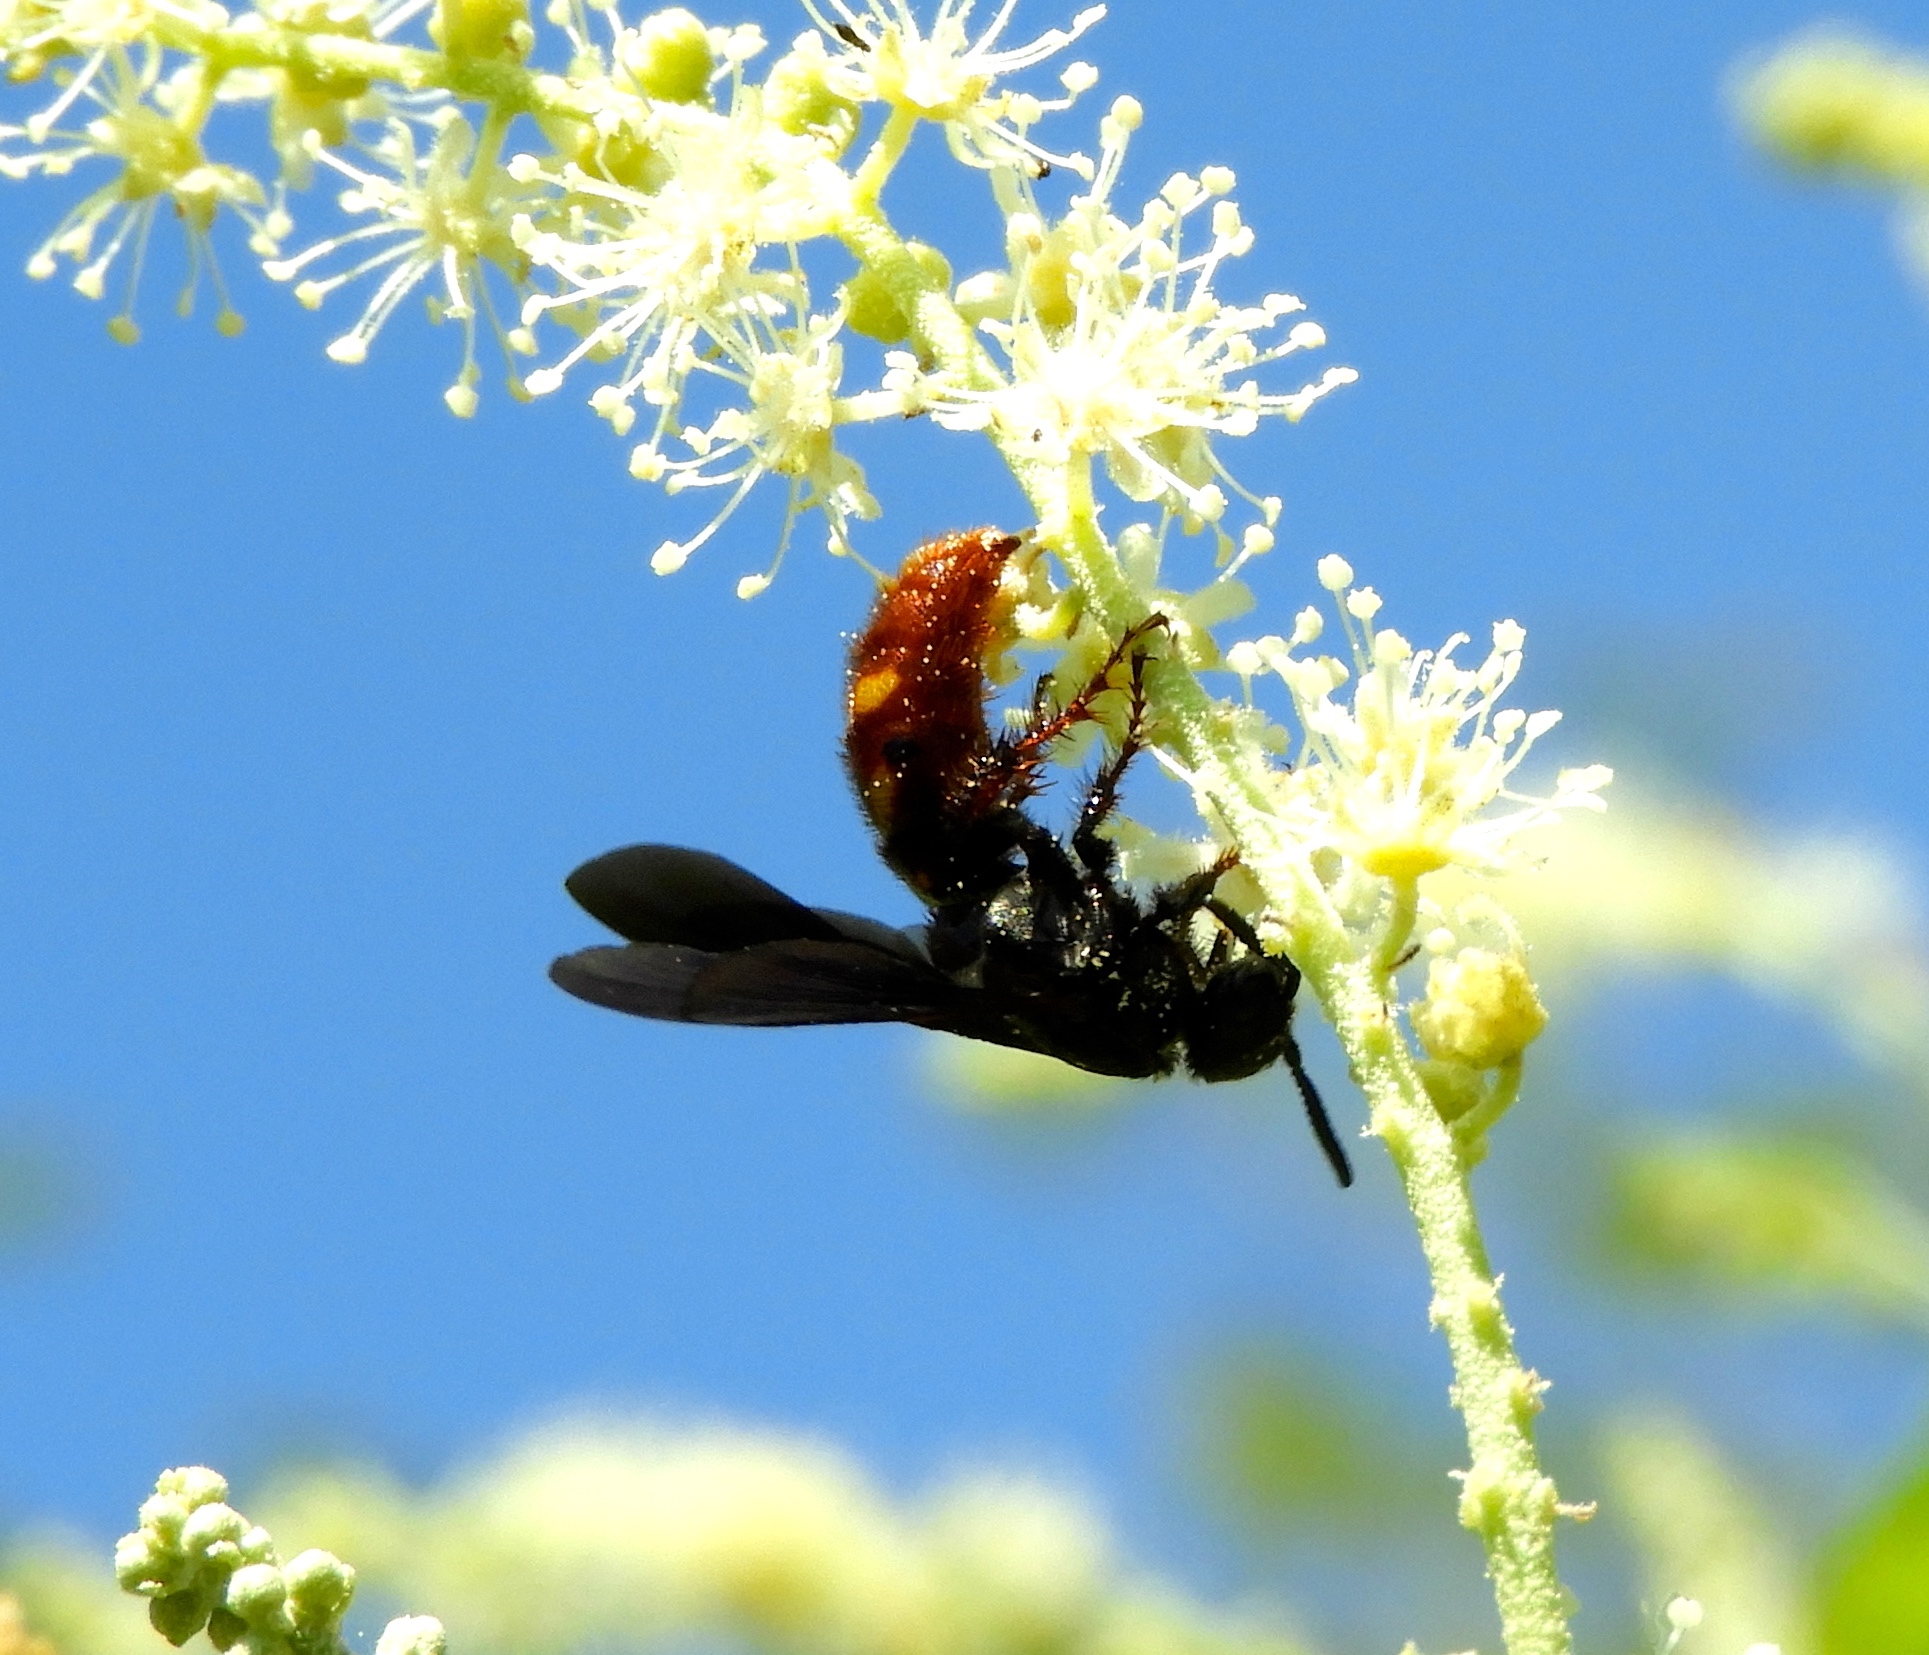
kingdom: Animalia
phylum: Arthropoda
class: Insecta
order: Hymenoptera
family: Scoliidae
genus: Scolia
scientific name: Scolia nobilitata
